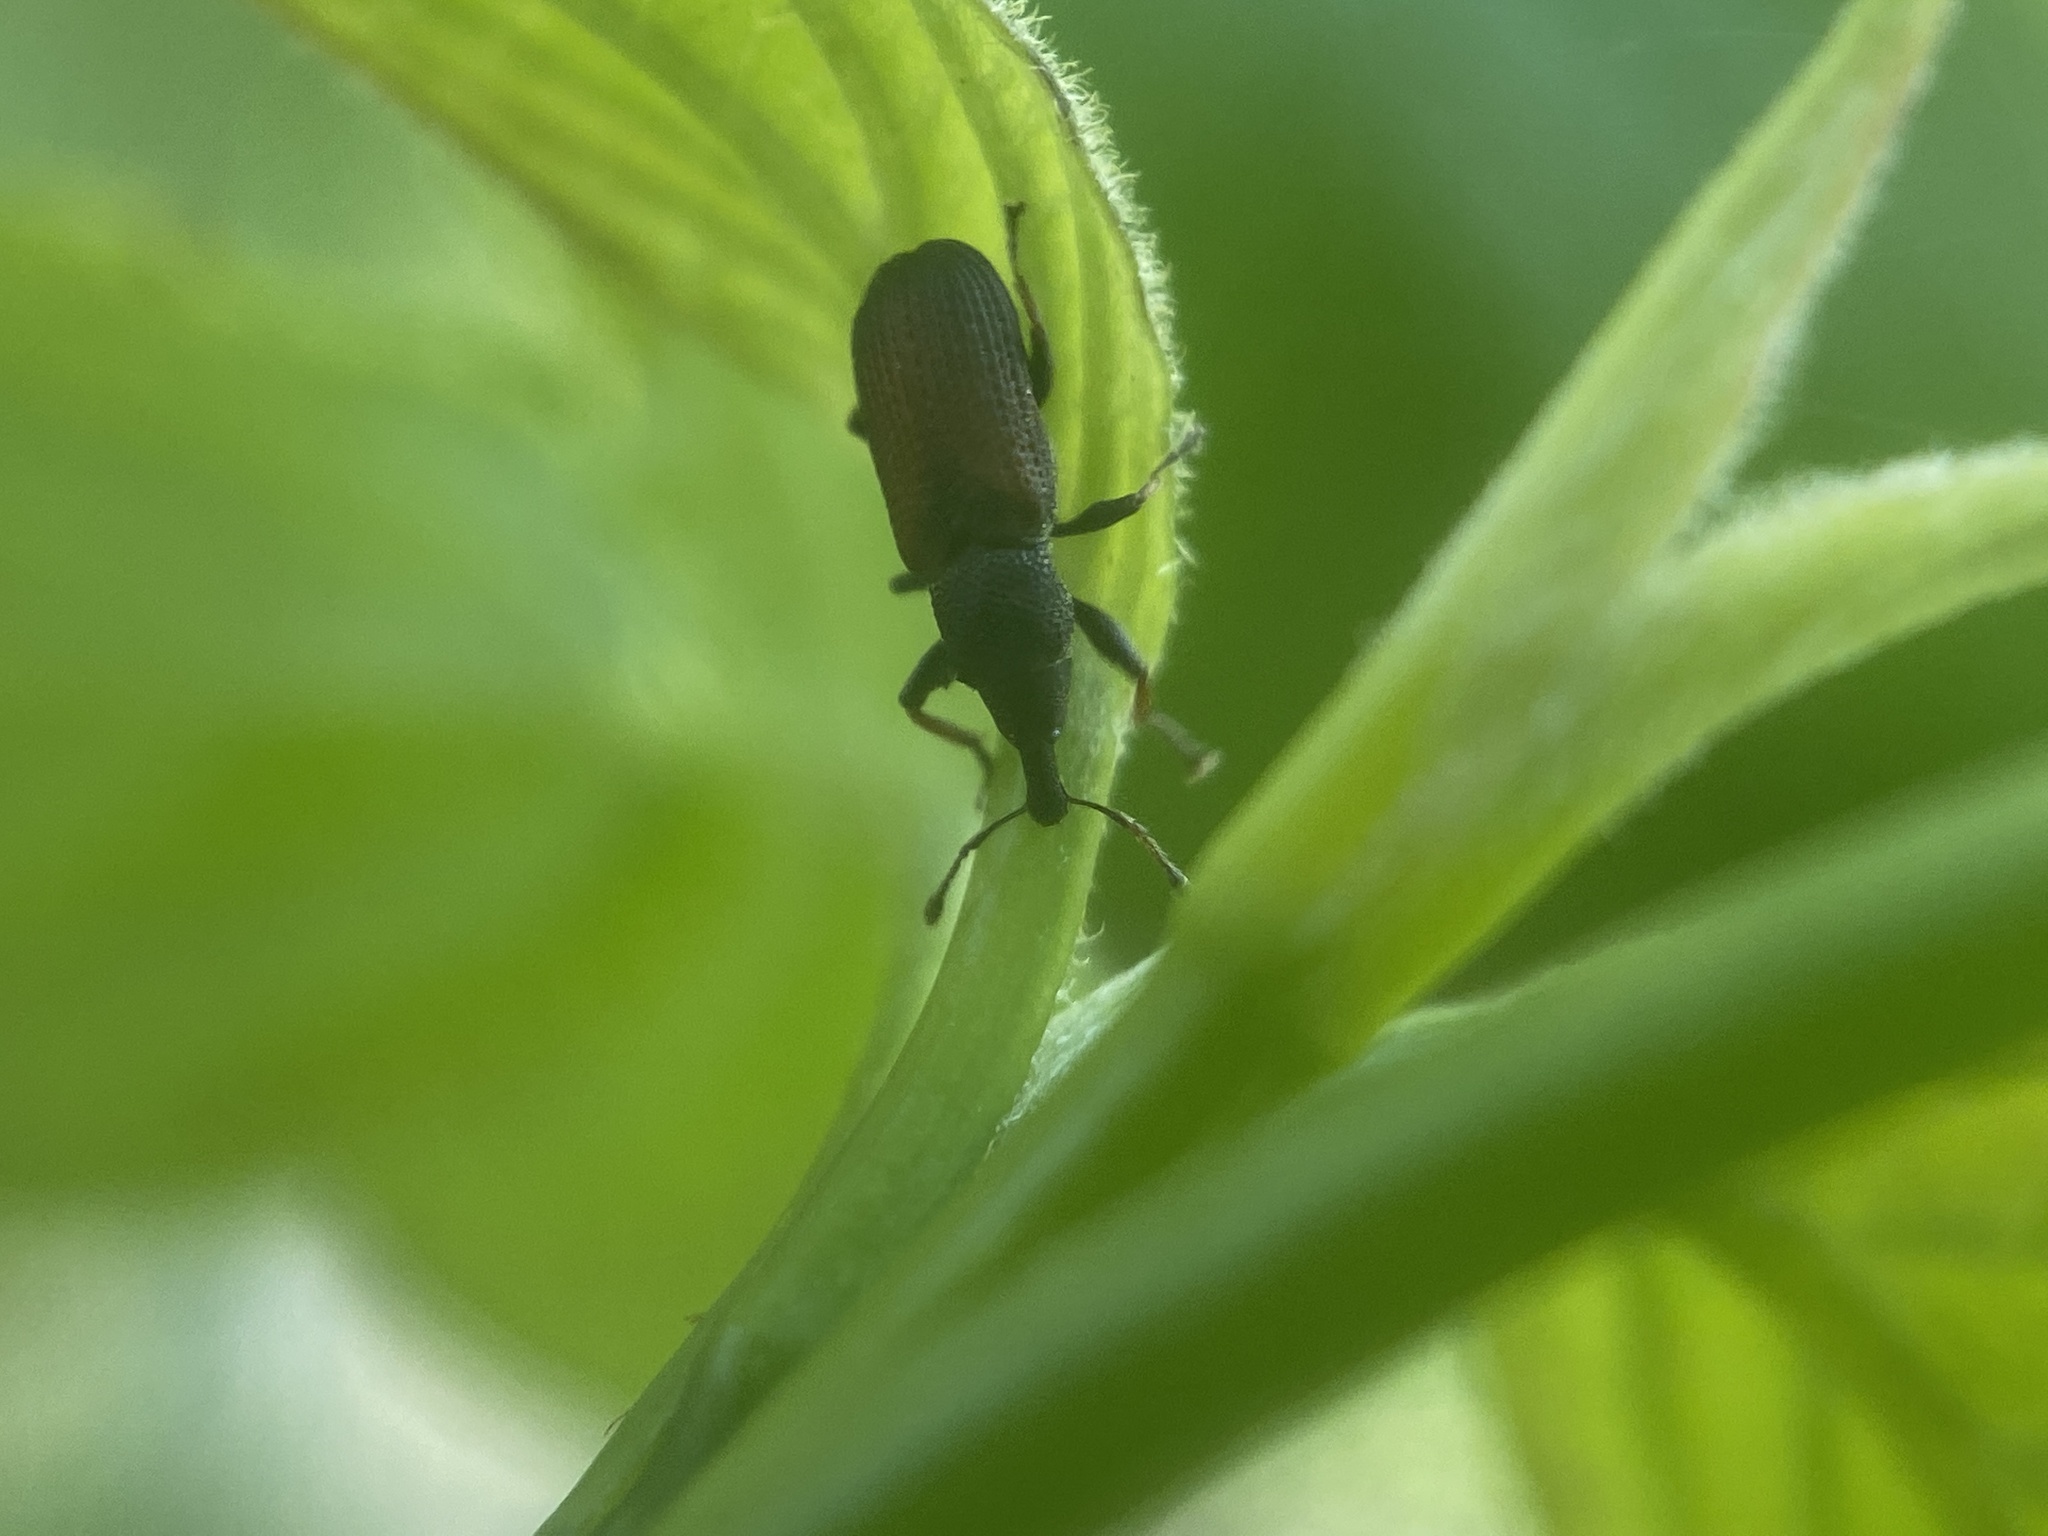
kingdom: Animalia
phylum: Arthropoda
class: Insecta
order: Coleoptera
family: Curculionidae
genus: Magdalis
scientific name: Magdalis armicollis
